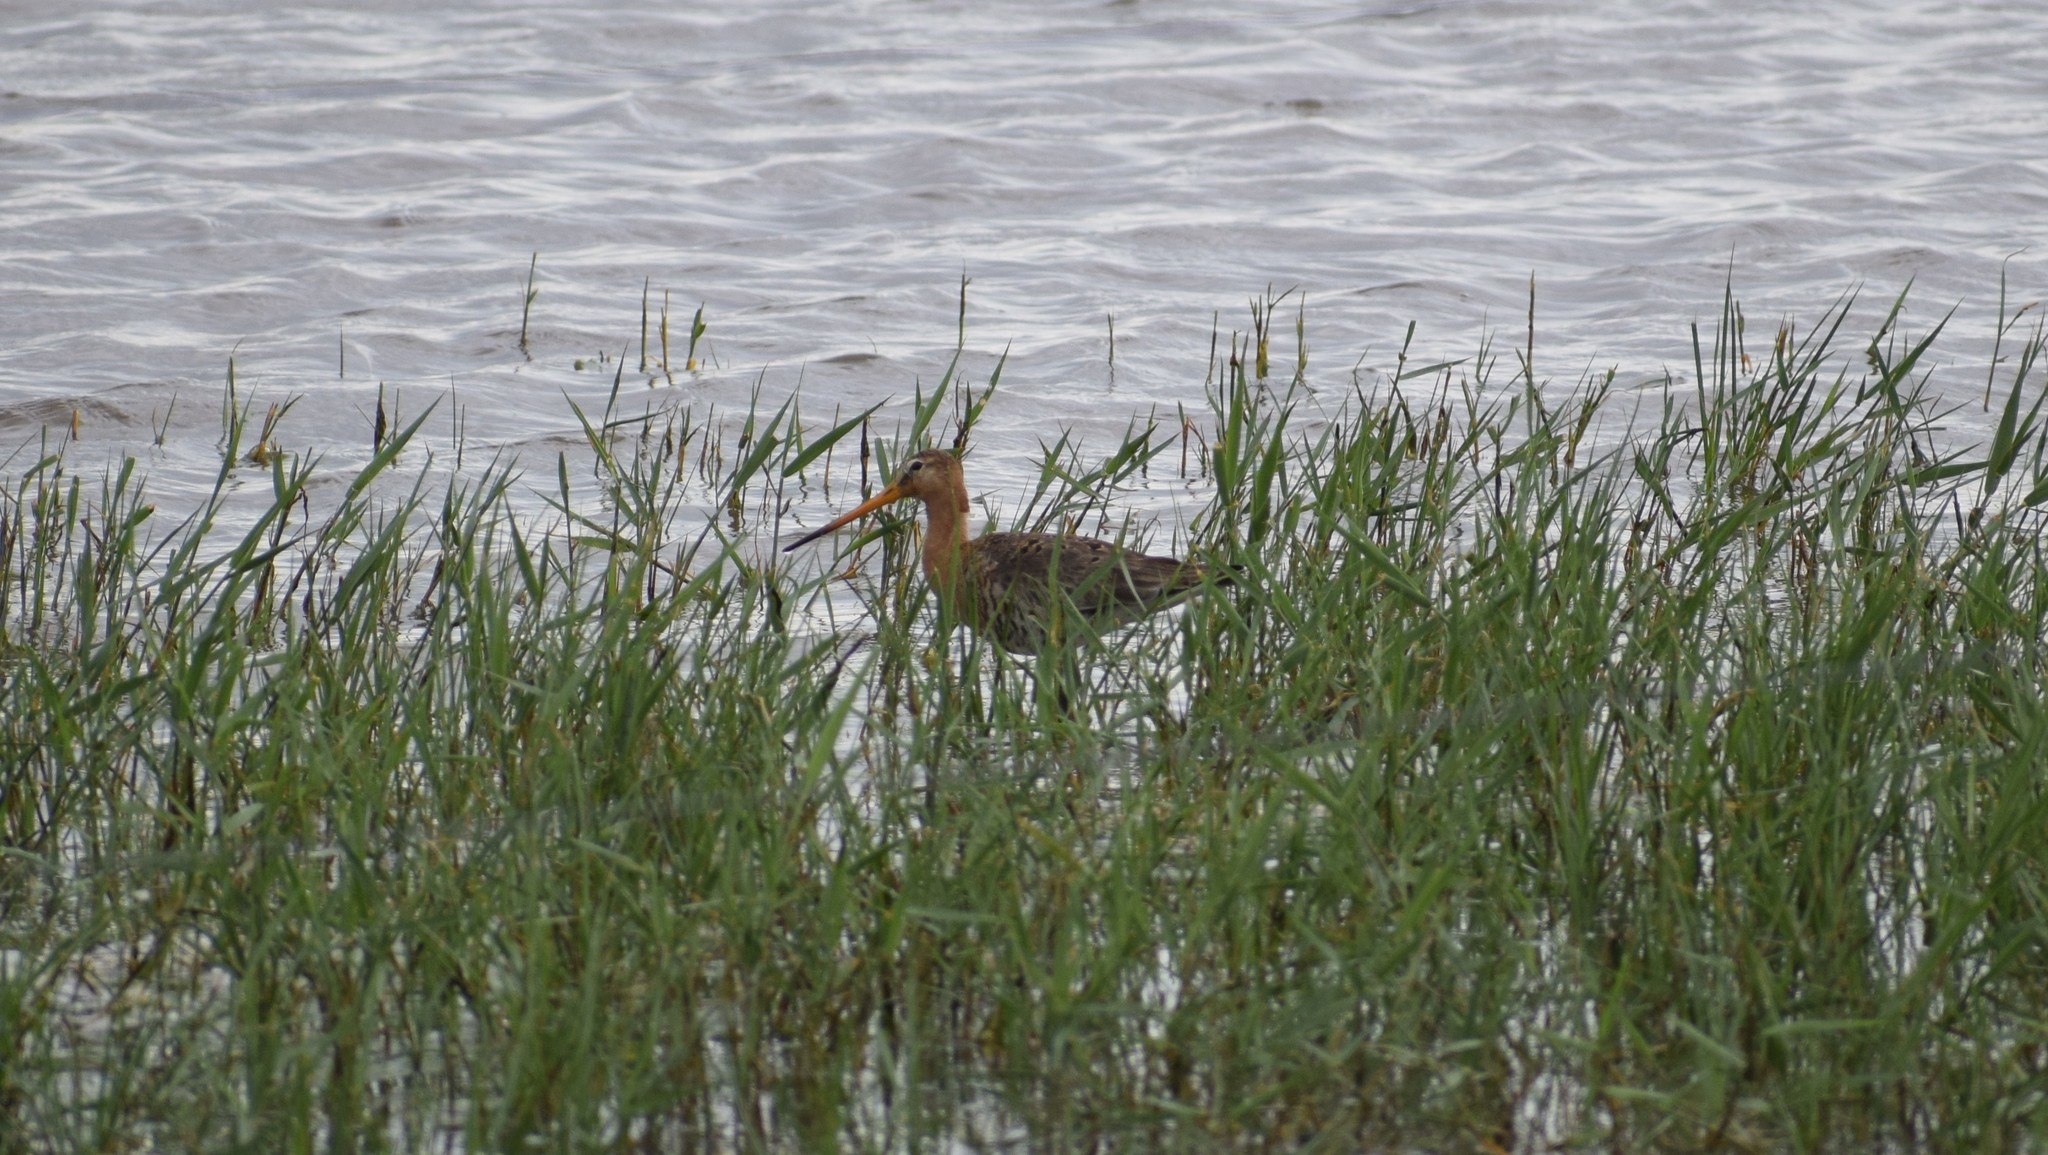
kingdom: Animalia
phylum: Chordata
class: Aves
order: Charadriiformes
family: Scolopacidae
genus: Limosa
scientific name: Limosa limosa
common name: Black-tailed godwit
